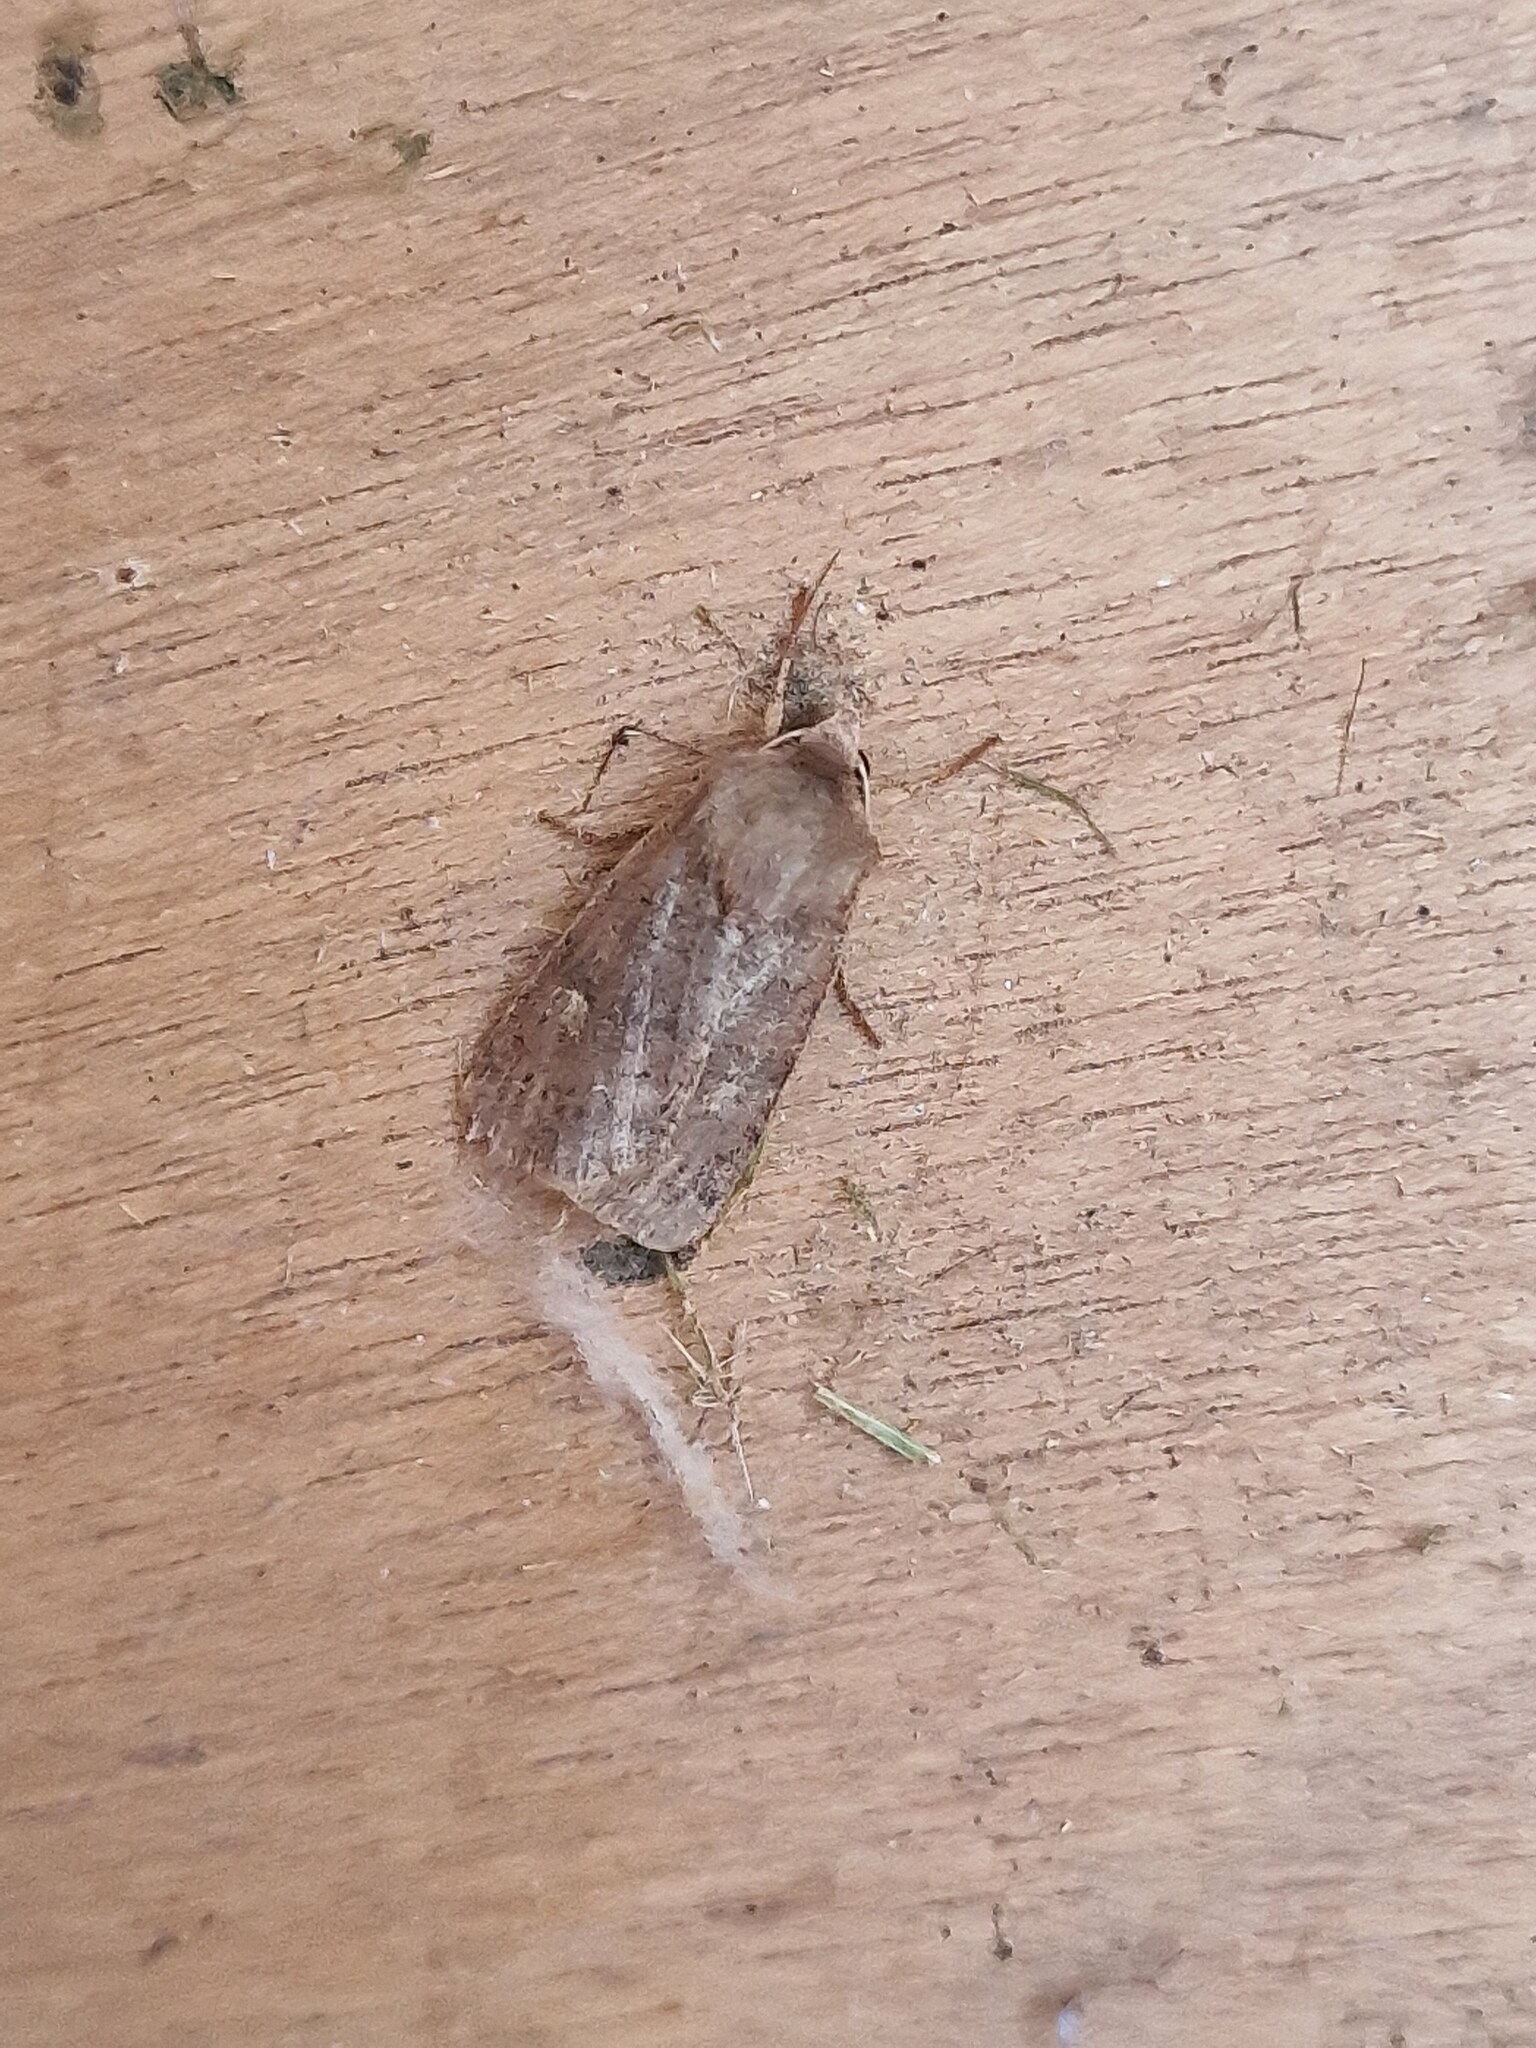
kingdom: Animalia
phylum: Arthropoda
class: Insecta
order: Lepidoptera
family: Noctuidae
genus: Xestia
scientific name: Xestia xanthographa
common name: Square-spot rustic
